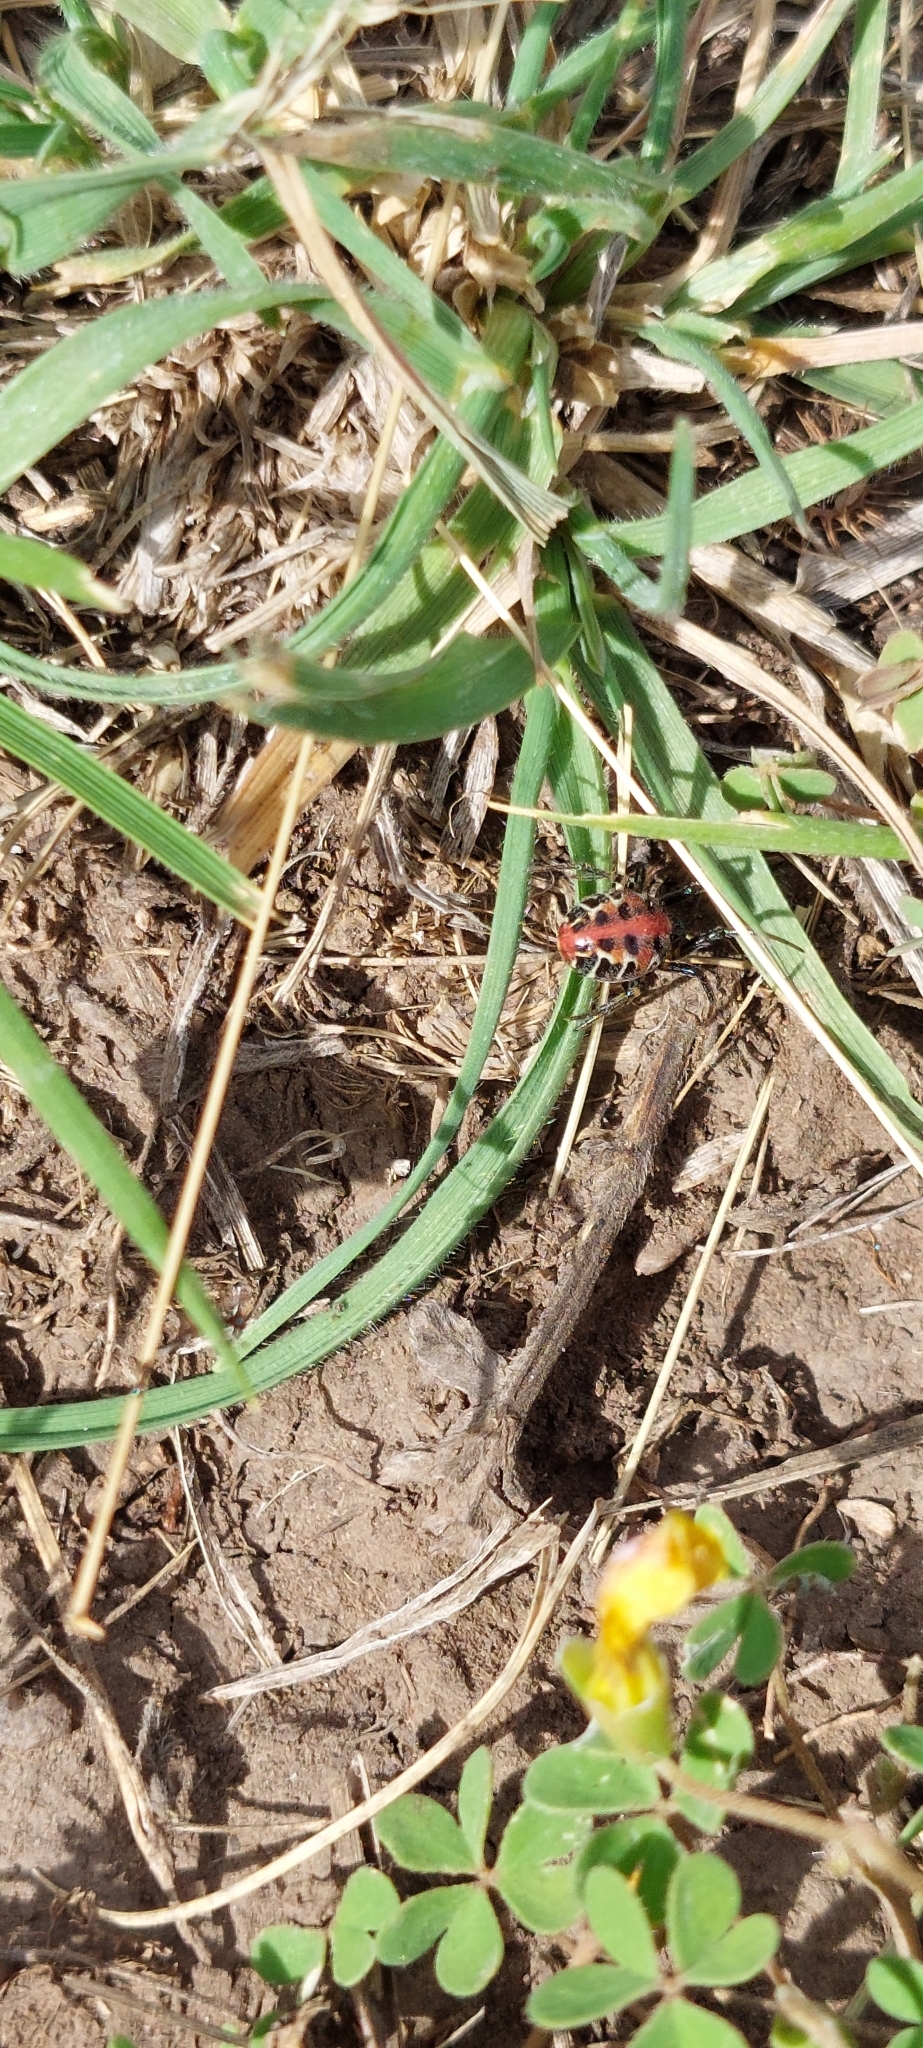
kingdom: Animalia
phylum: Arthropoda
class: Arachnida
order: Araneae
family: Araneidae
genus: Alpaida
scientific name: Alpaida versicolor
